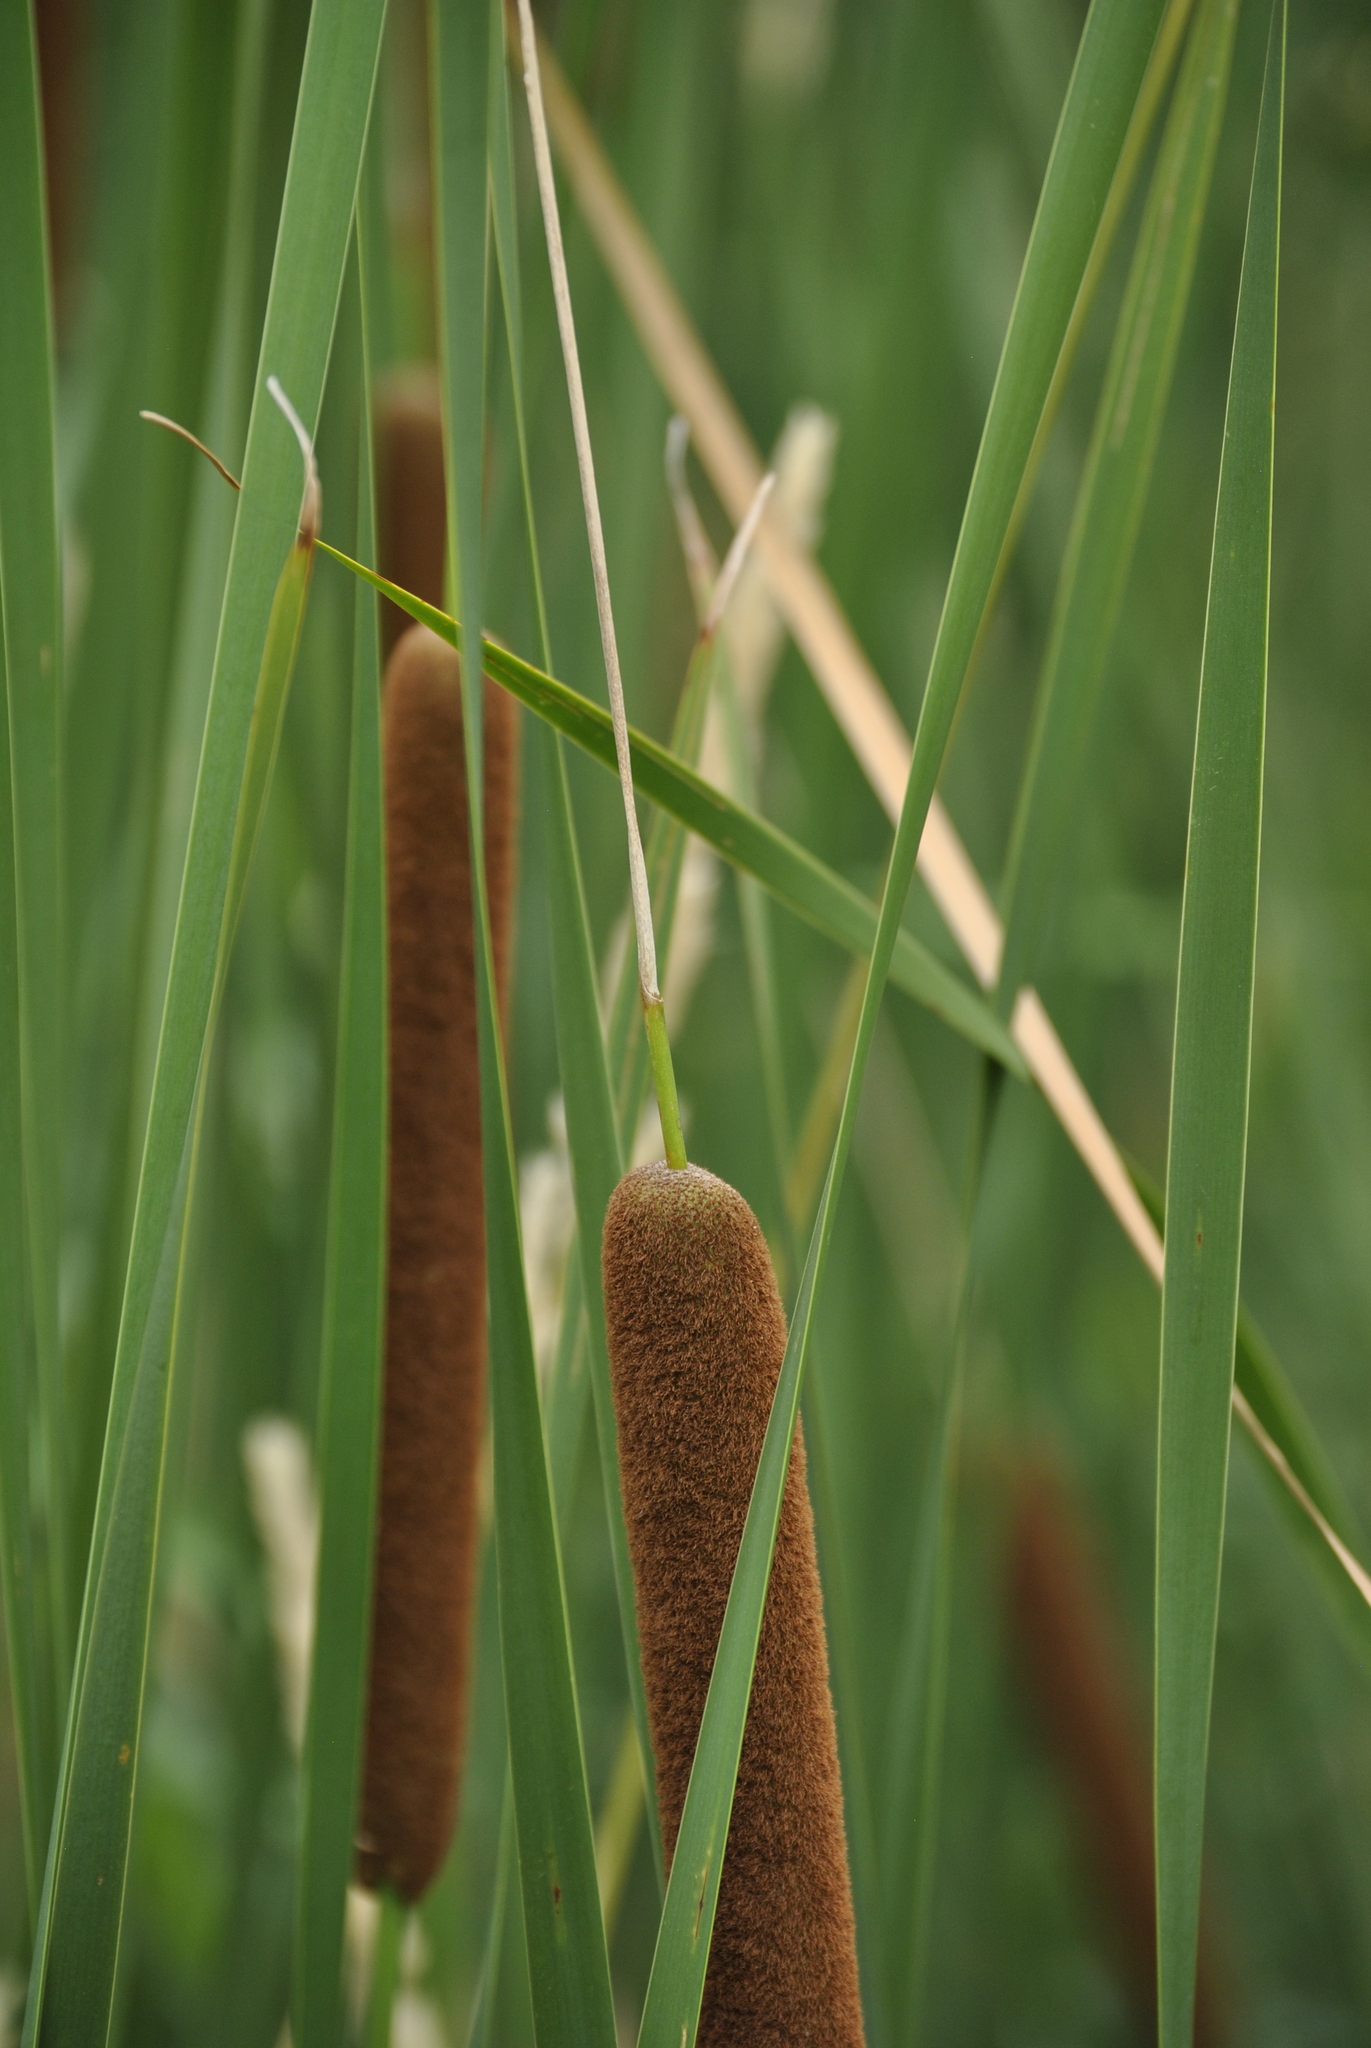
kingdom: Plantae
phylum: Tracheophyta
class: Liliopsida
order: Poales
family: Typhaceae
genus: Typha
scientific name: Typha angustifolia
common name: Lesser bulrush
